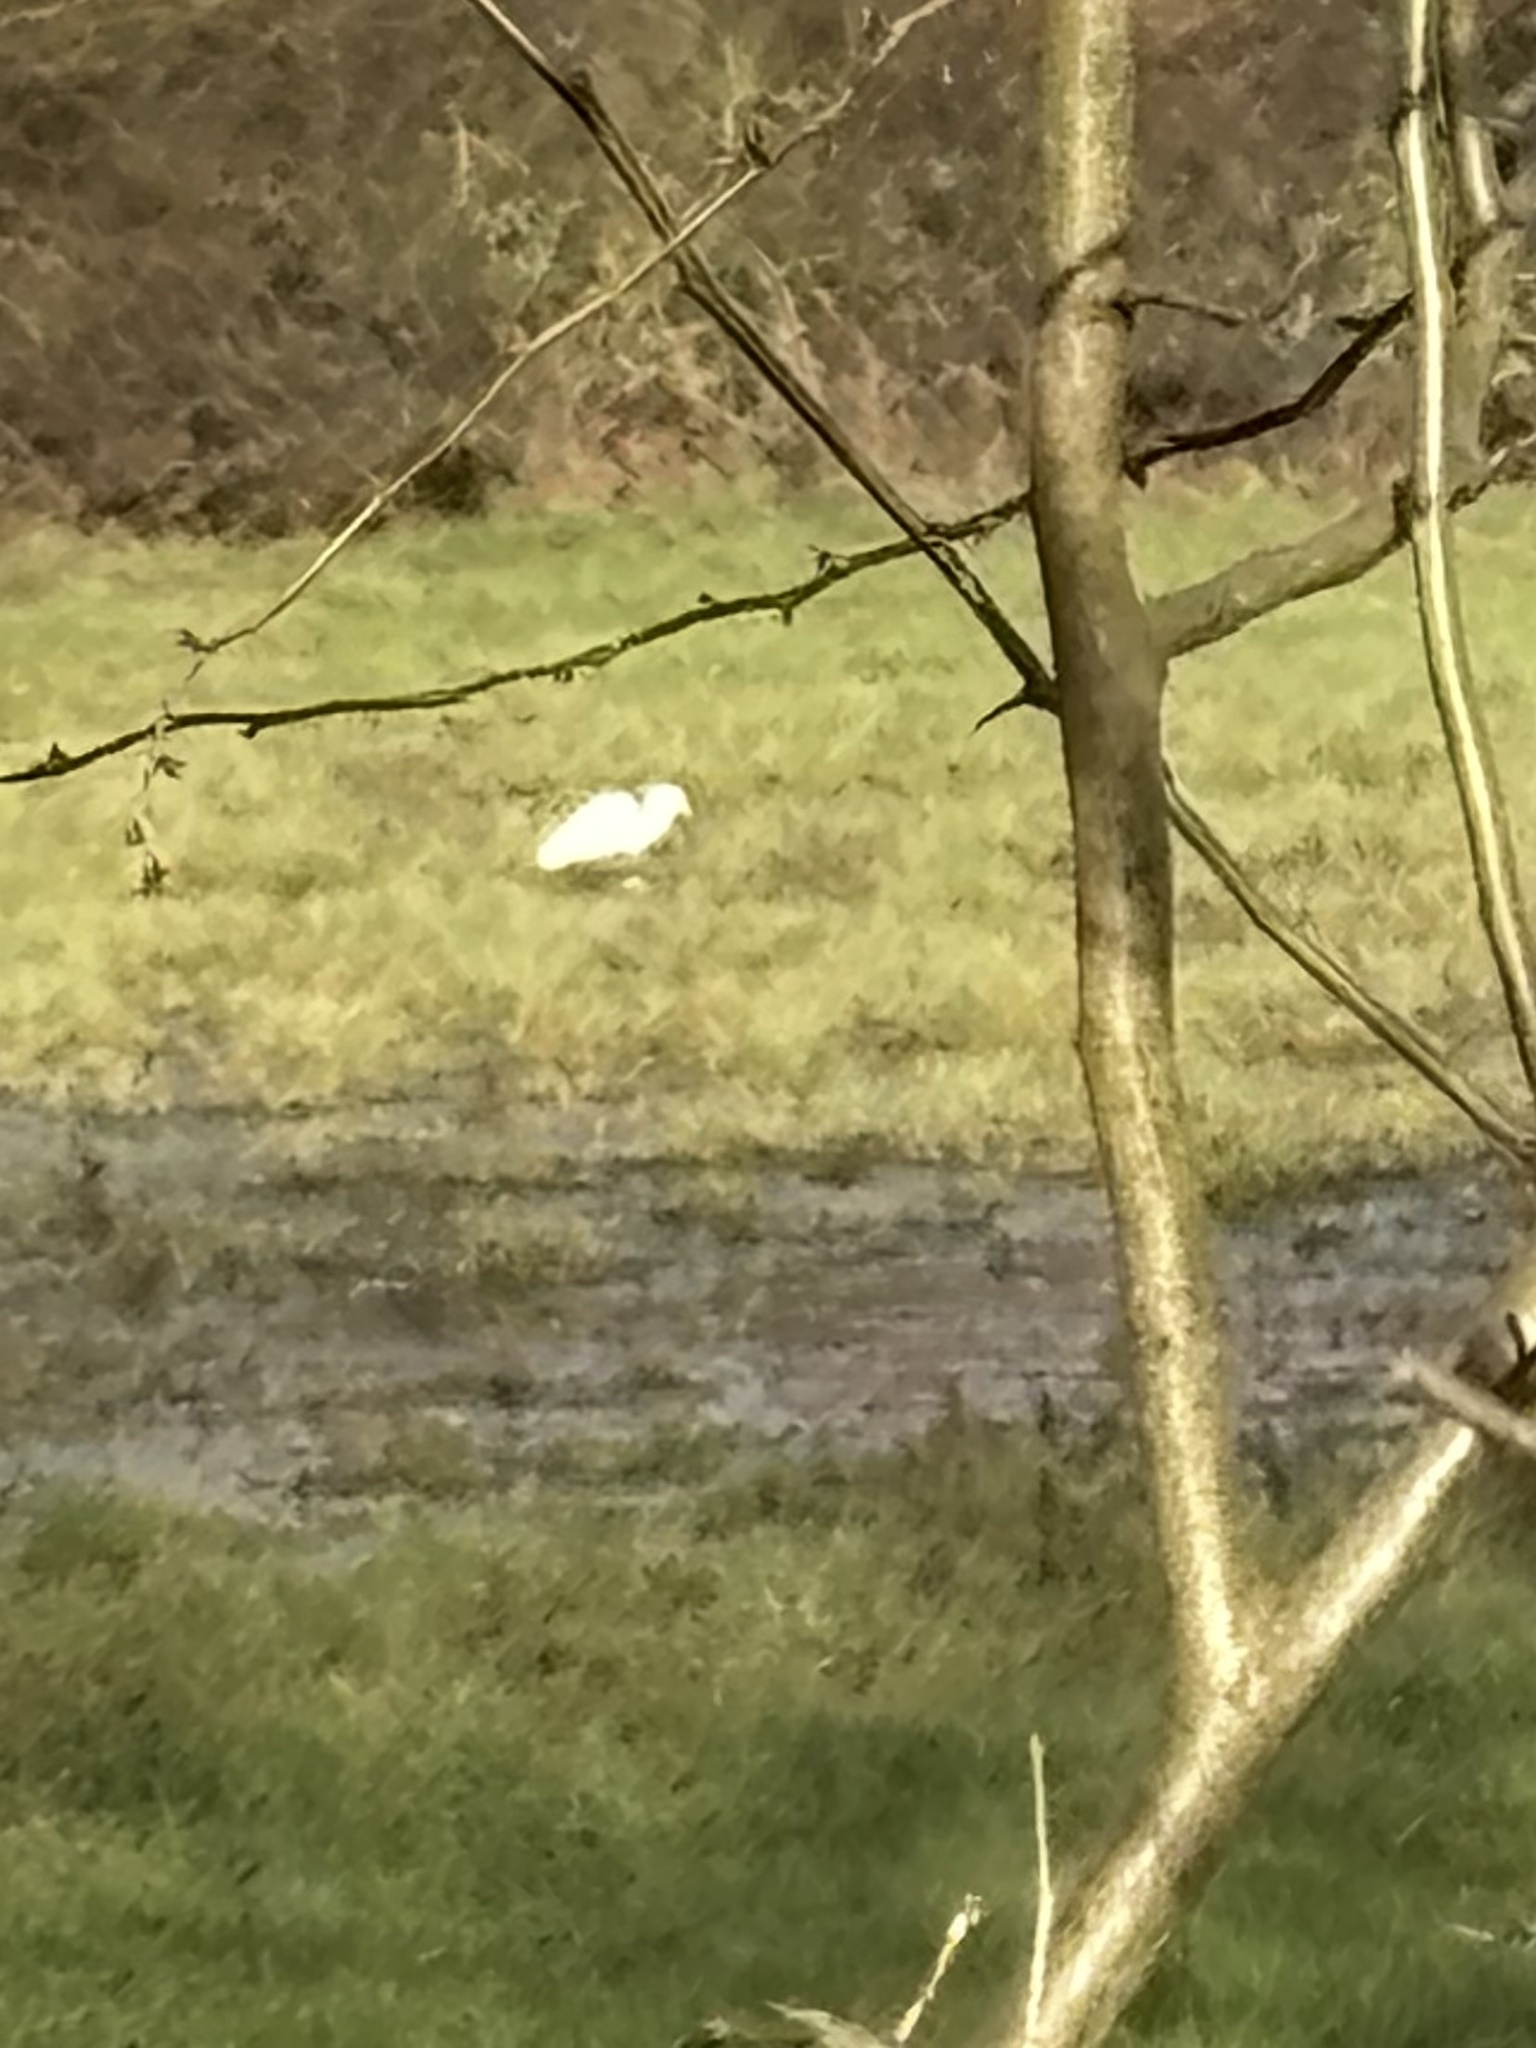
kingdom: Animalia
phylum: Chordata
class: Aves
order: Pelecaniformes
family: Ardeidae
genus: Egretta
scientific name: Egretta garzetta
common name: Little egret
